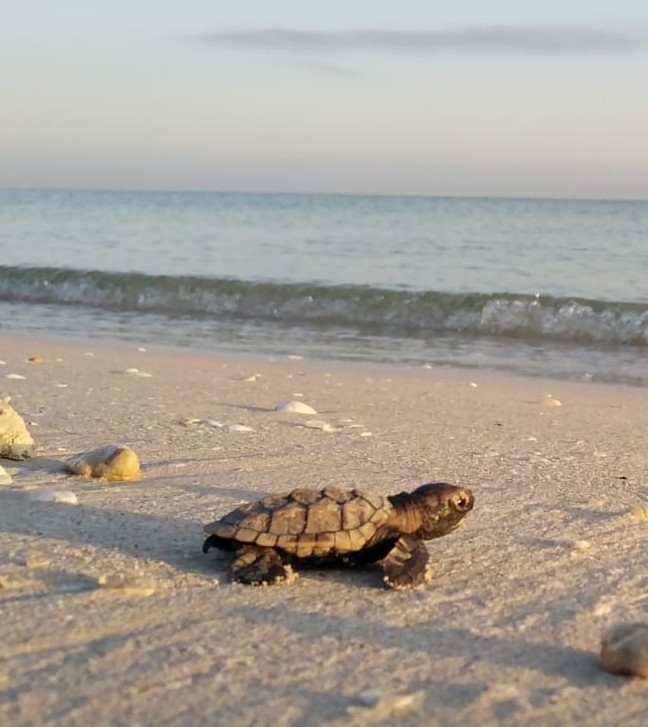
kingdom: Animalia
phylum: Chordata
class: Testudines
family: Cheloniidae
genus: Eretmochelys
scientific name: Eretmochelys imbricata
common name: Hawksbill turtle
